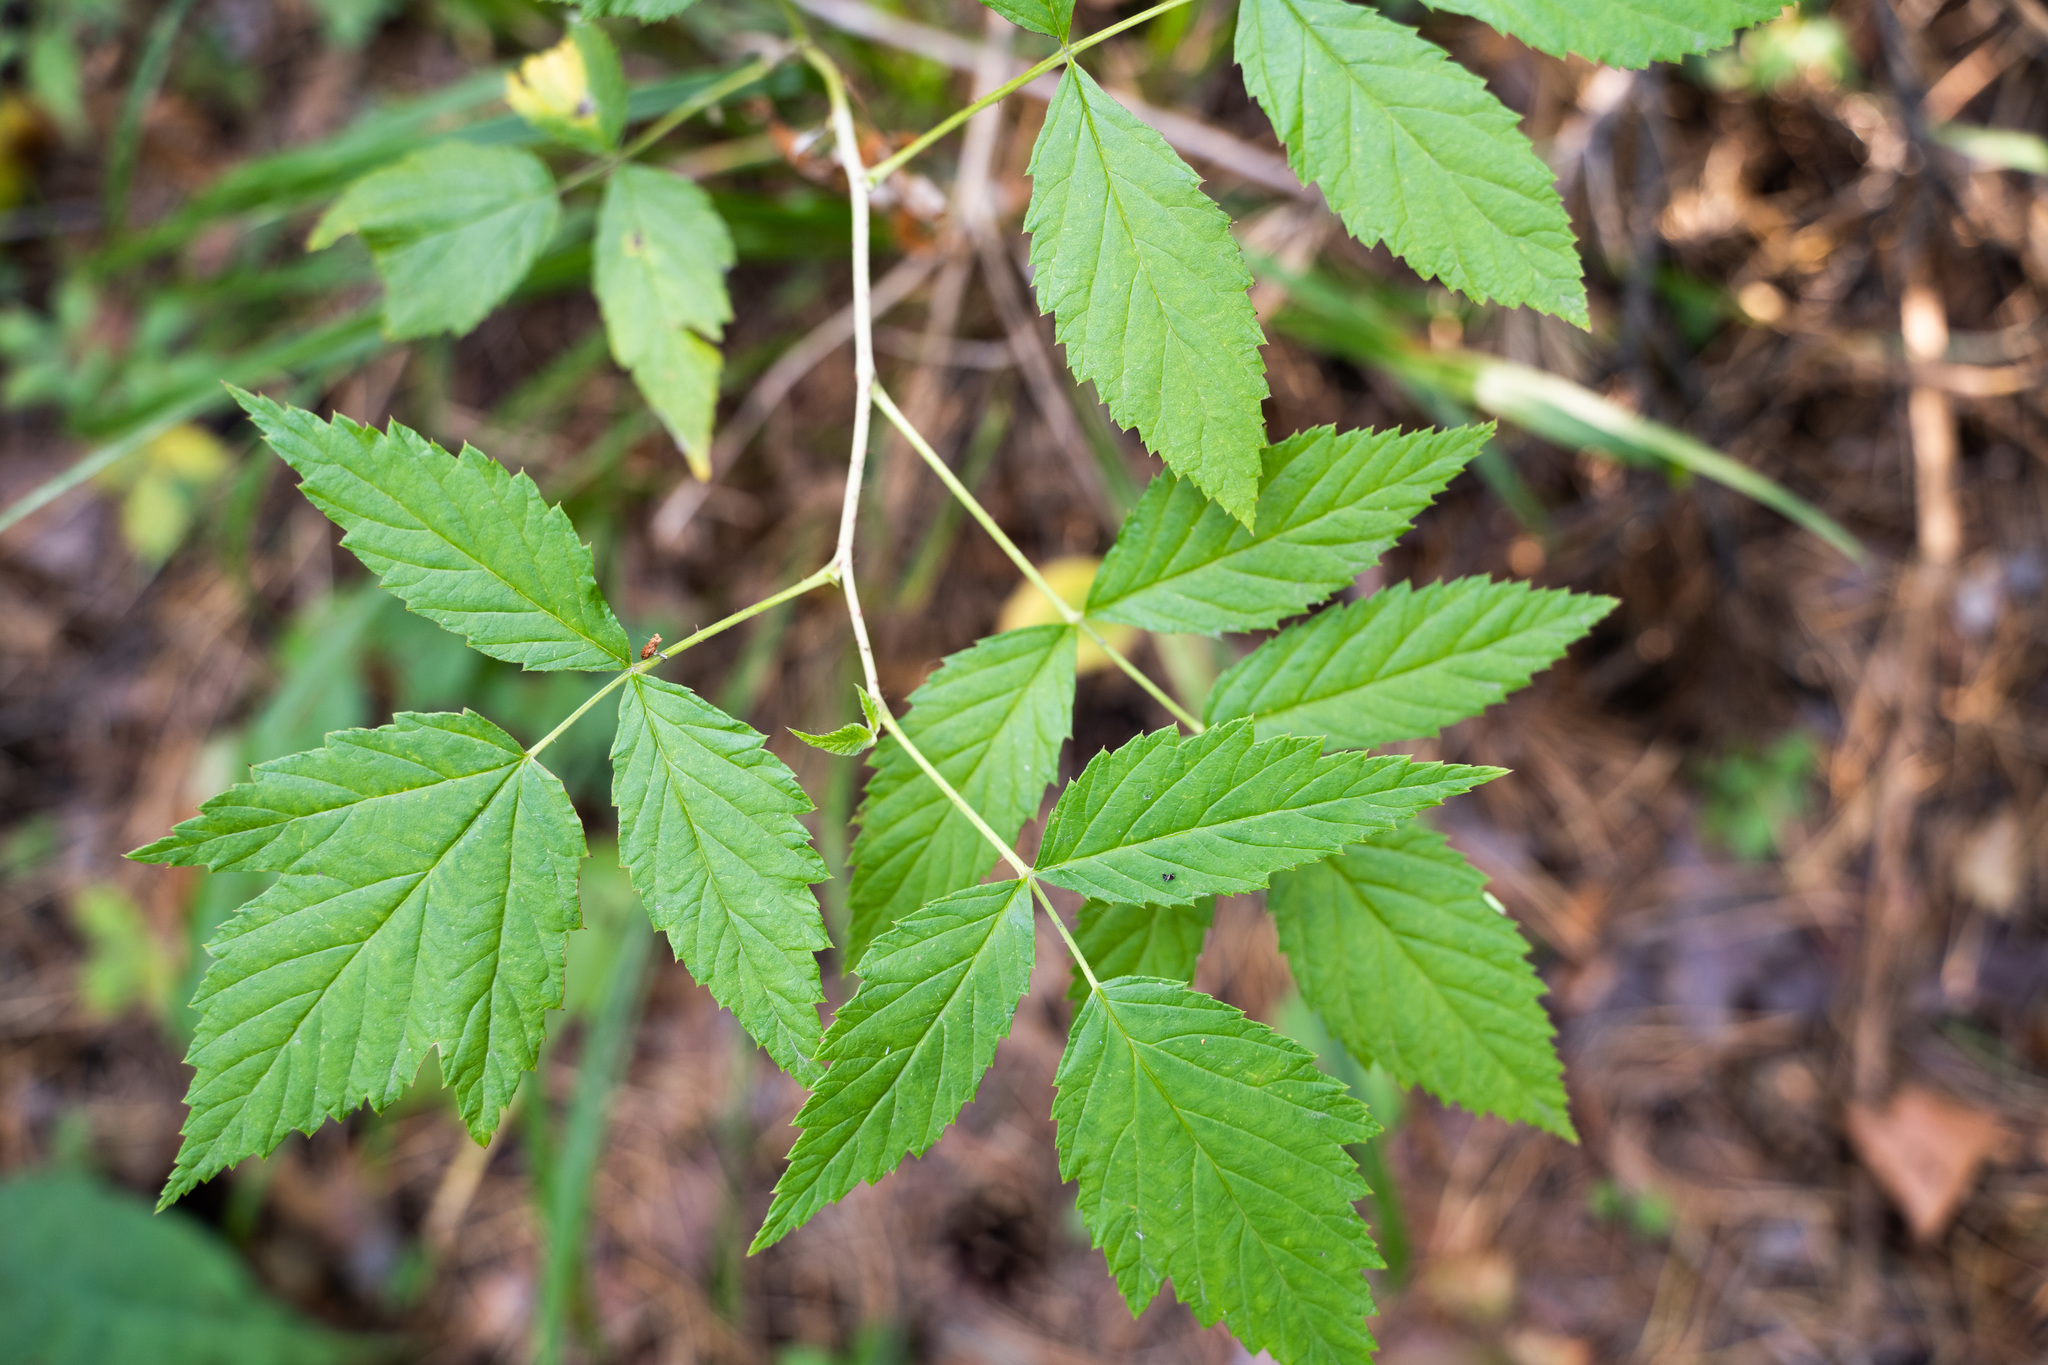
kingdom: Plantae
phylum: Tracheophyta
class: Magnoliopsida
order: Rosales
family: Rosaceae
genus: Rubus
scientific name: Rubus idaeus
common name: Raspberry
